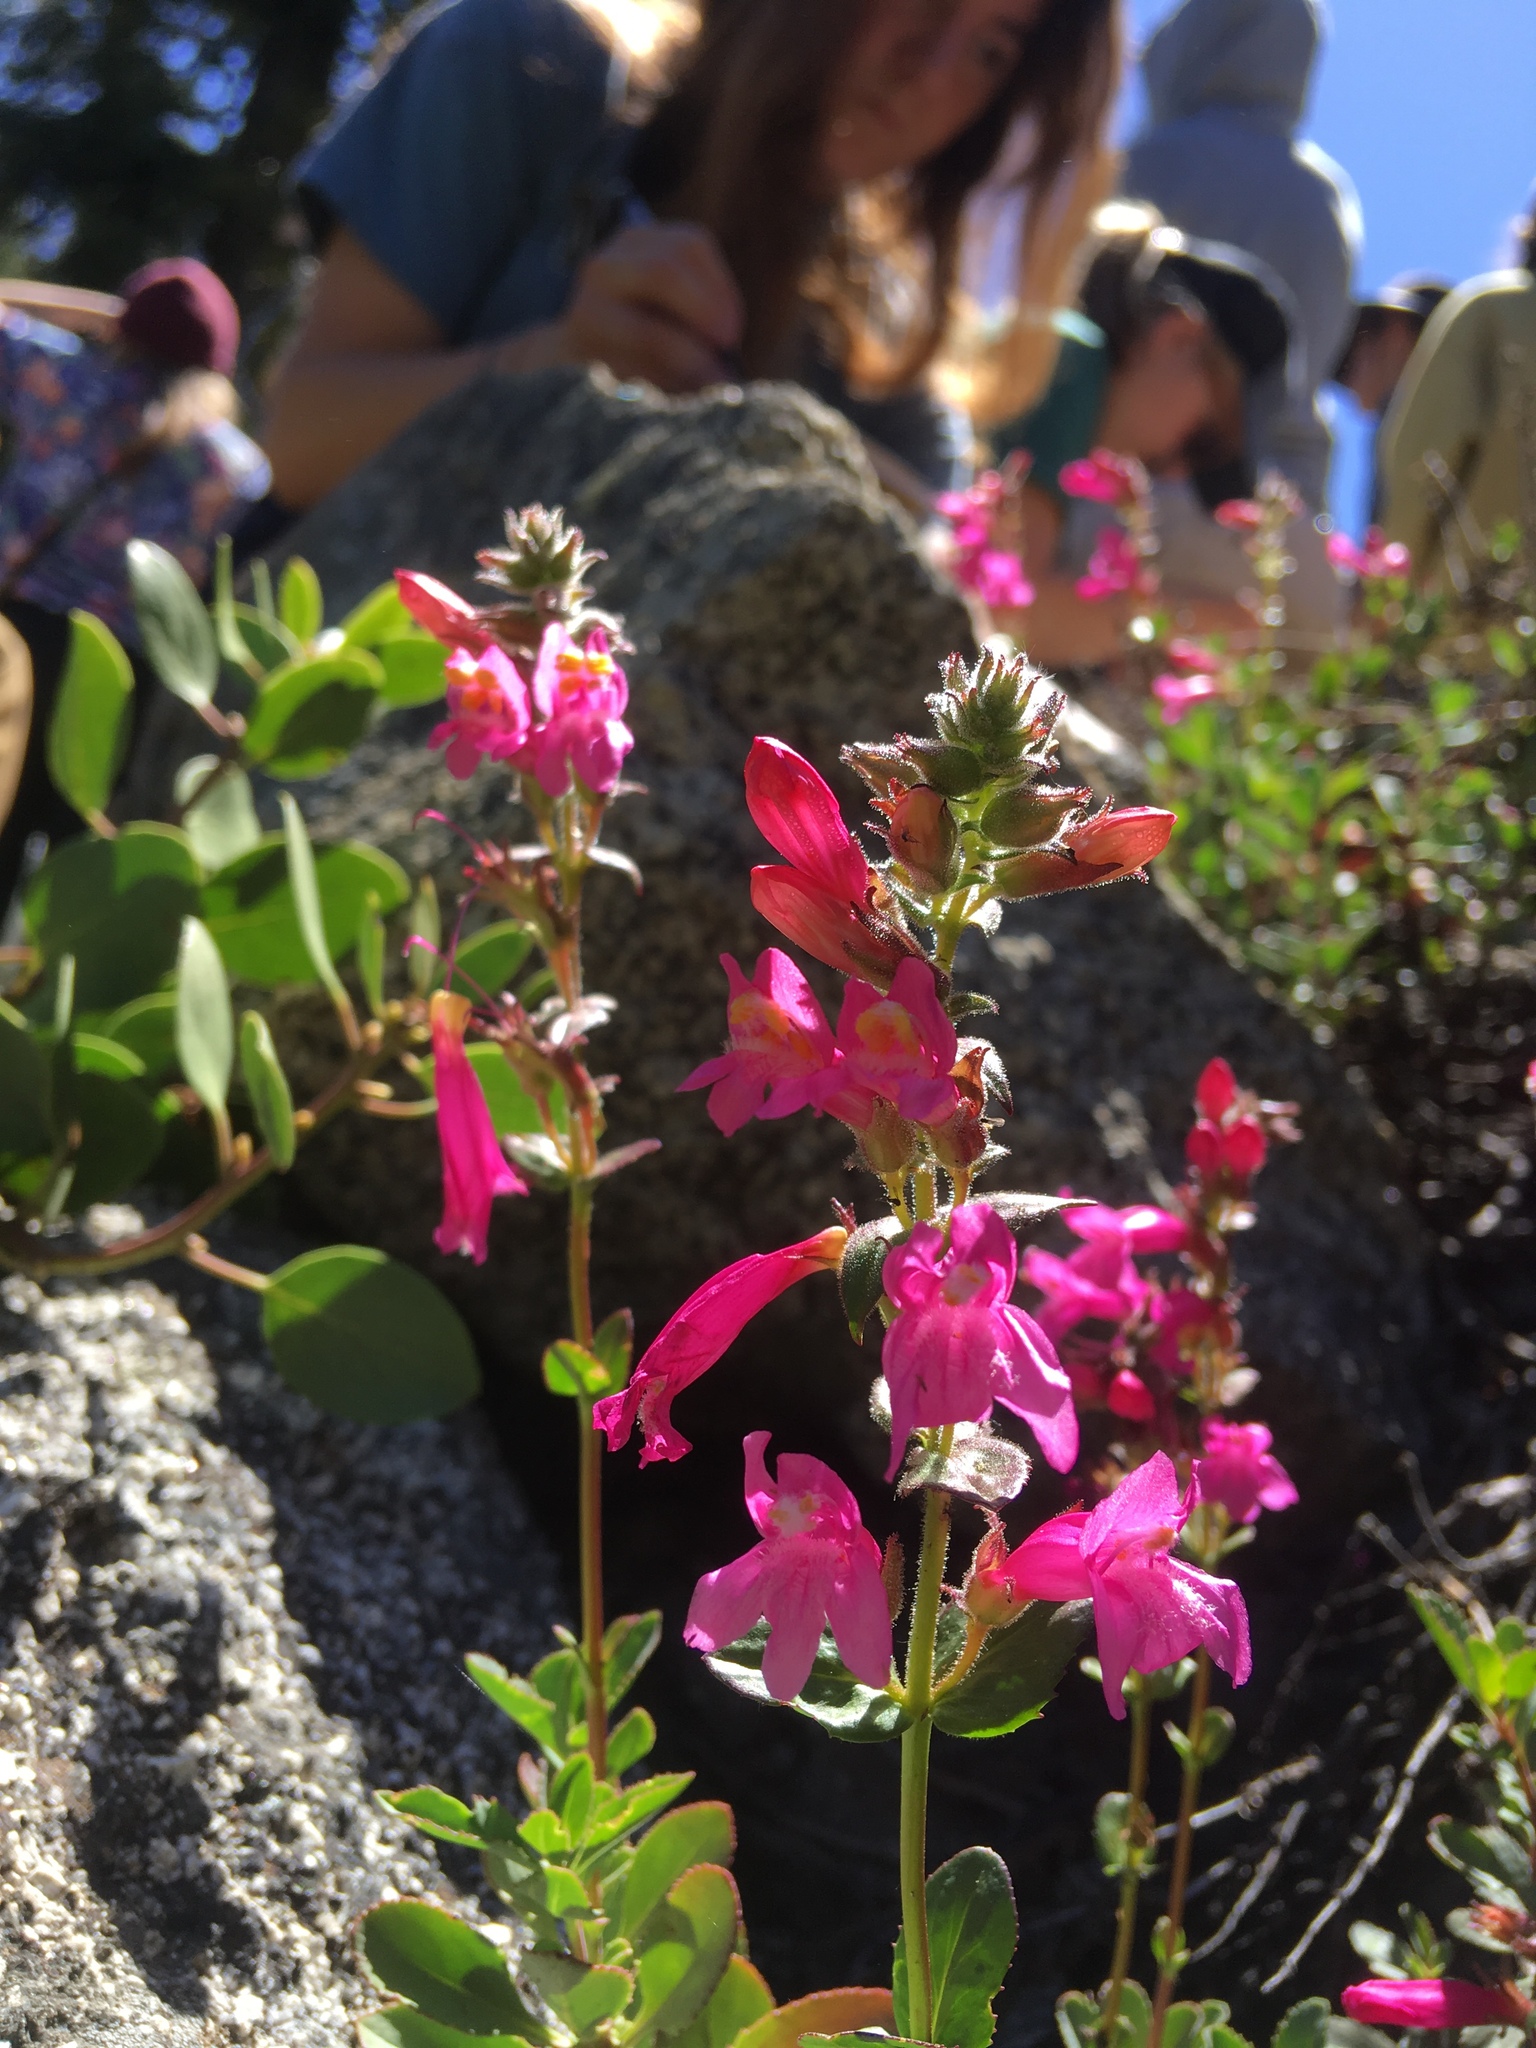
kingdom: Plantae
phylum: Tracheophyta
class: Magnoliopsida
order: Lamiales
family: Plantaginaceae
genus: Penstemon
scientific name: Penstemon newberryi
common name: Mountain-pride
